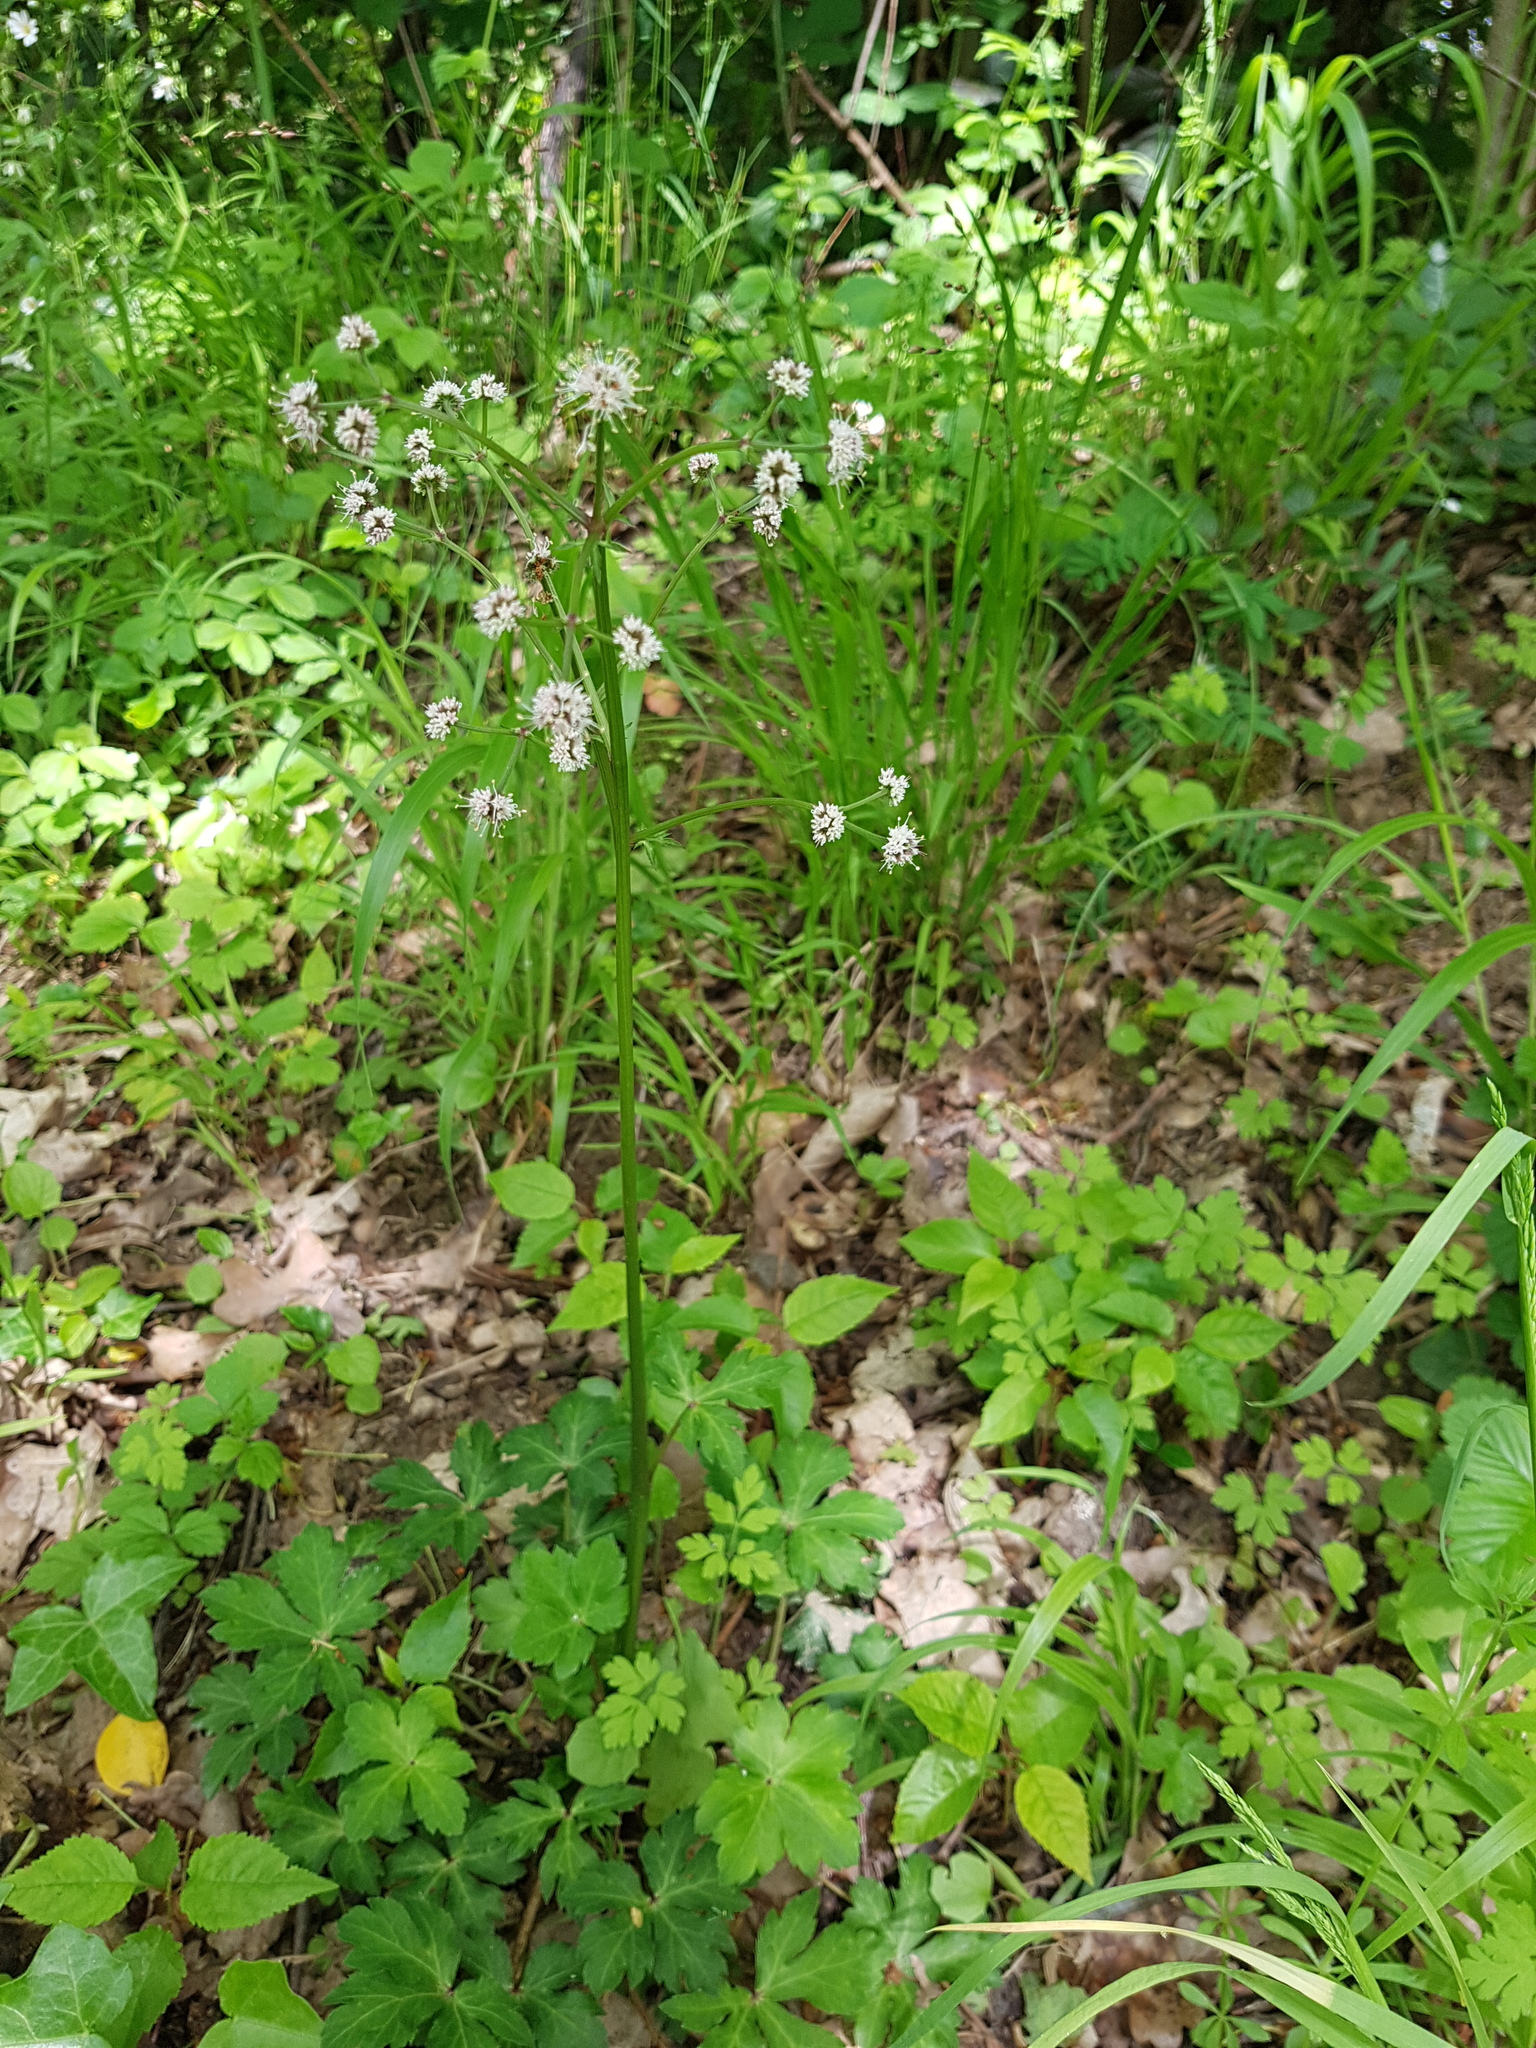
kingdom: Plantae
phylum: Tracheophyta
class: Magnoliopsida
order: Apiales
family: Apiaceae
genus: Sanicula
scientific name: Sanicula europaea
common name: Sanicle
